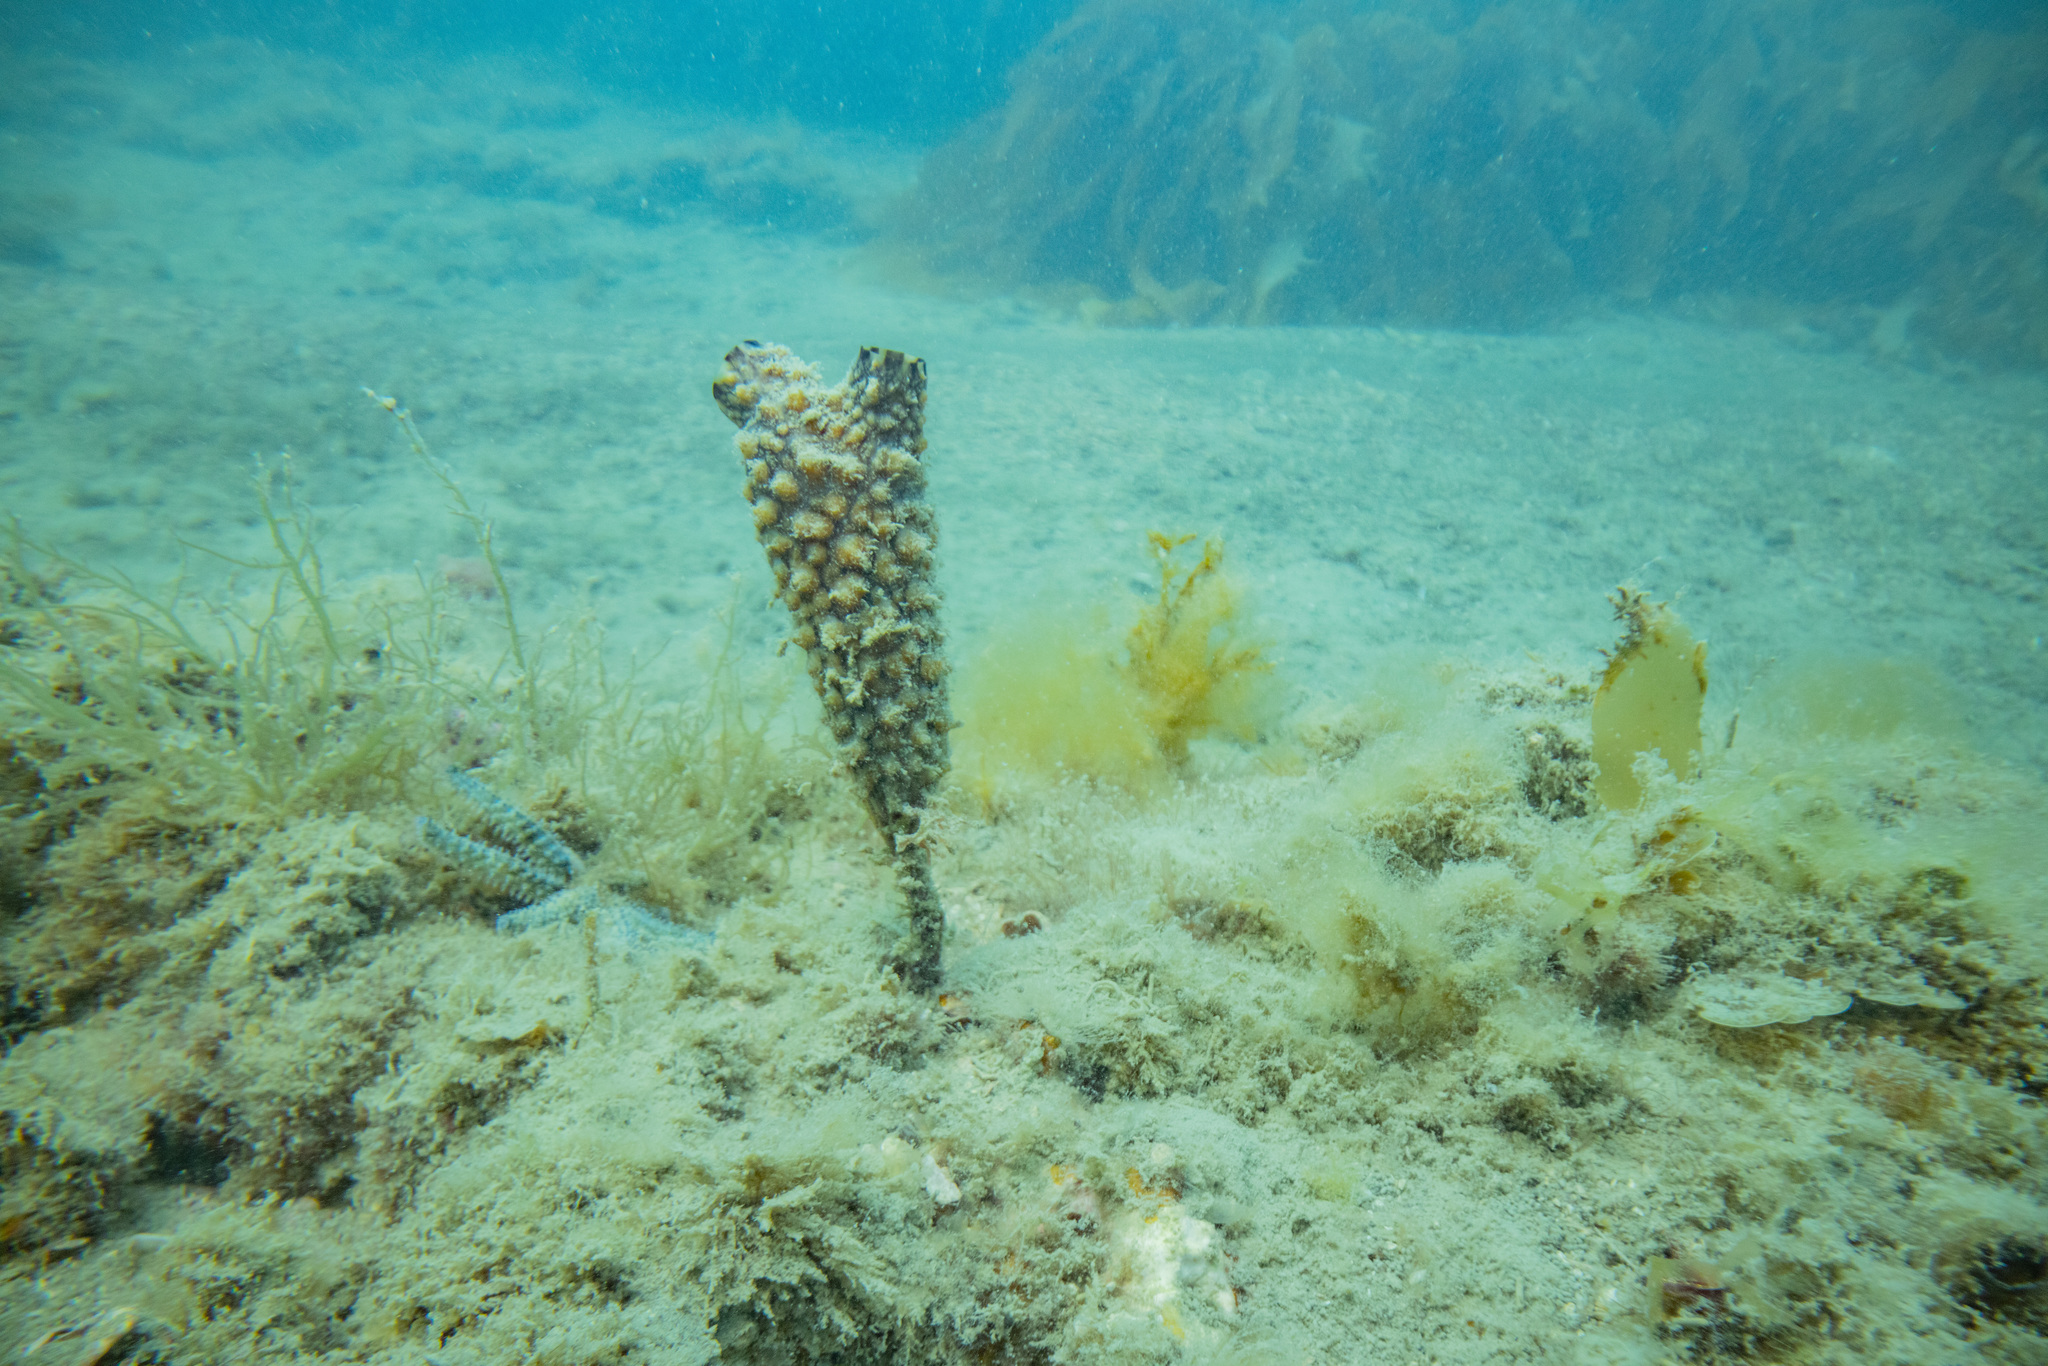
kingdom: Animalia
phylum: Chordata
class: Ascidiacea
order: Stolidobranchia
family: Styelidae
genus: Styela
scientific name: Styela clava
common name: Leathery sea squirt
